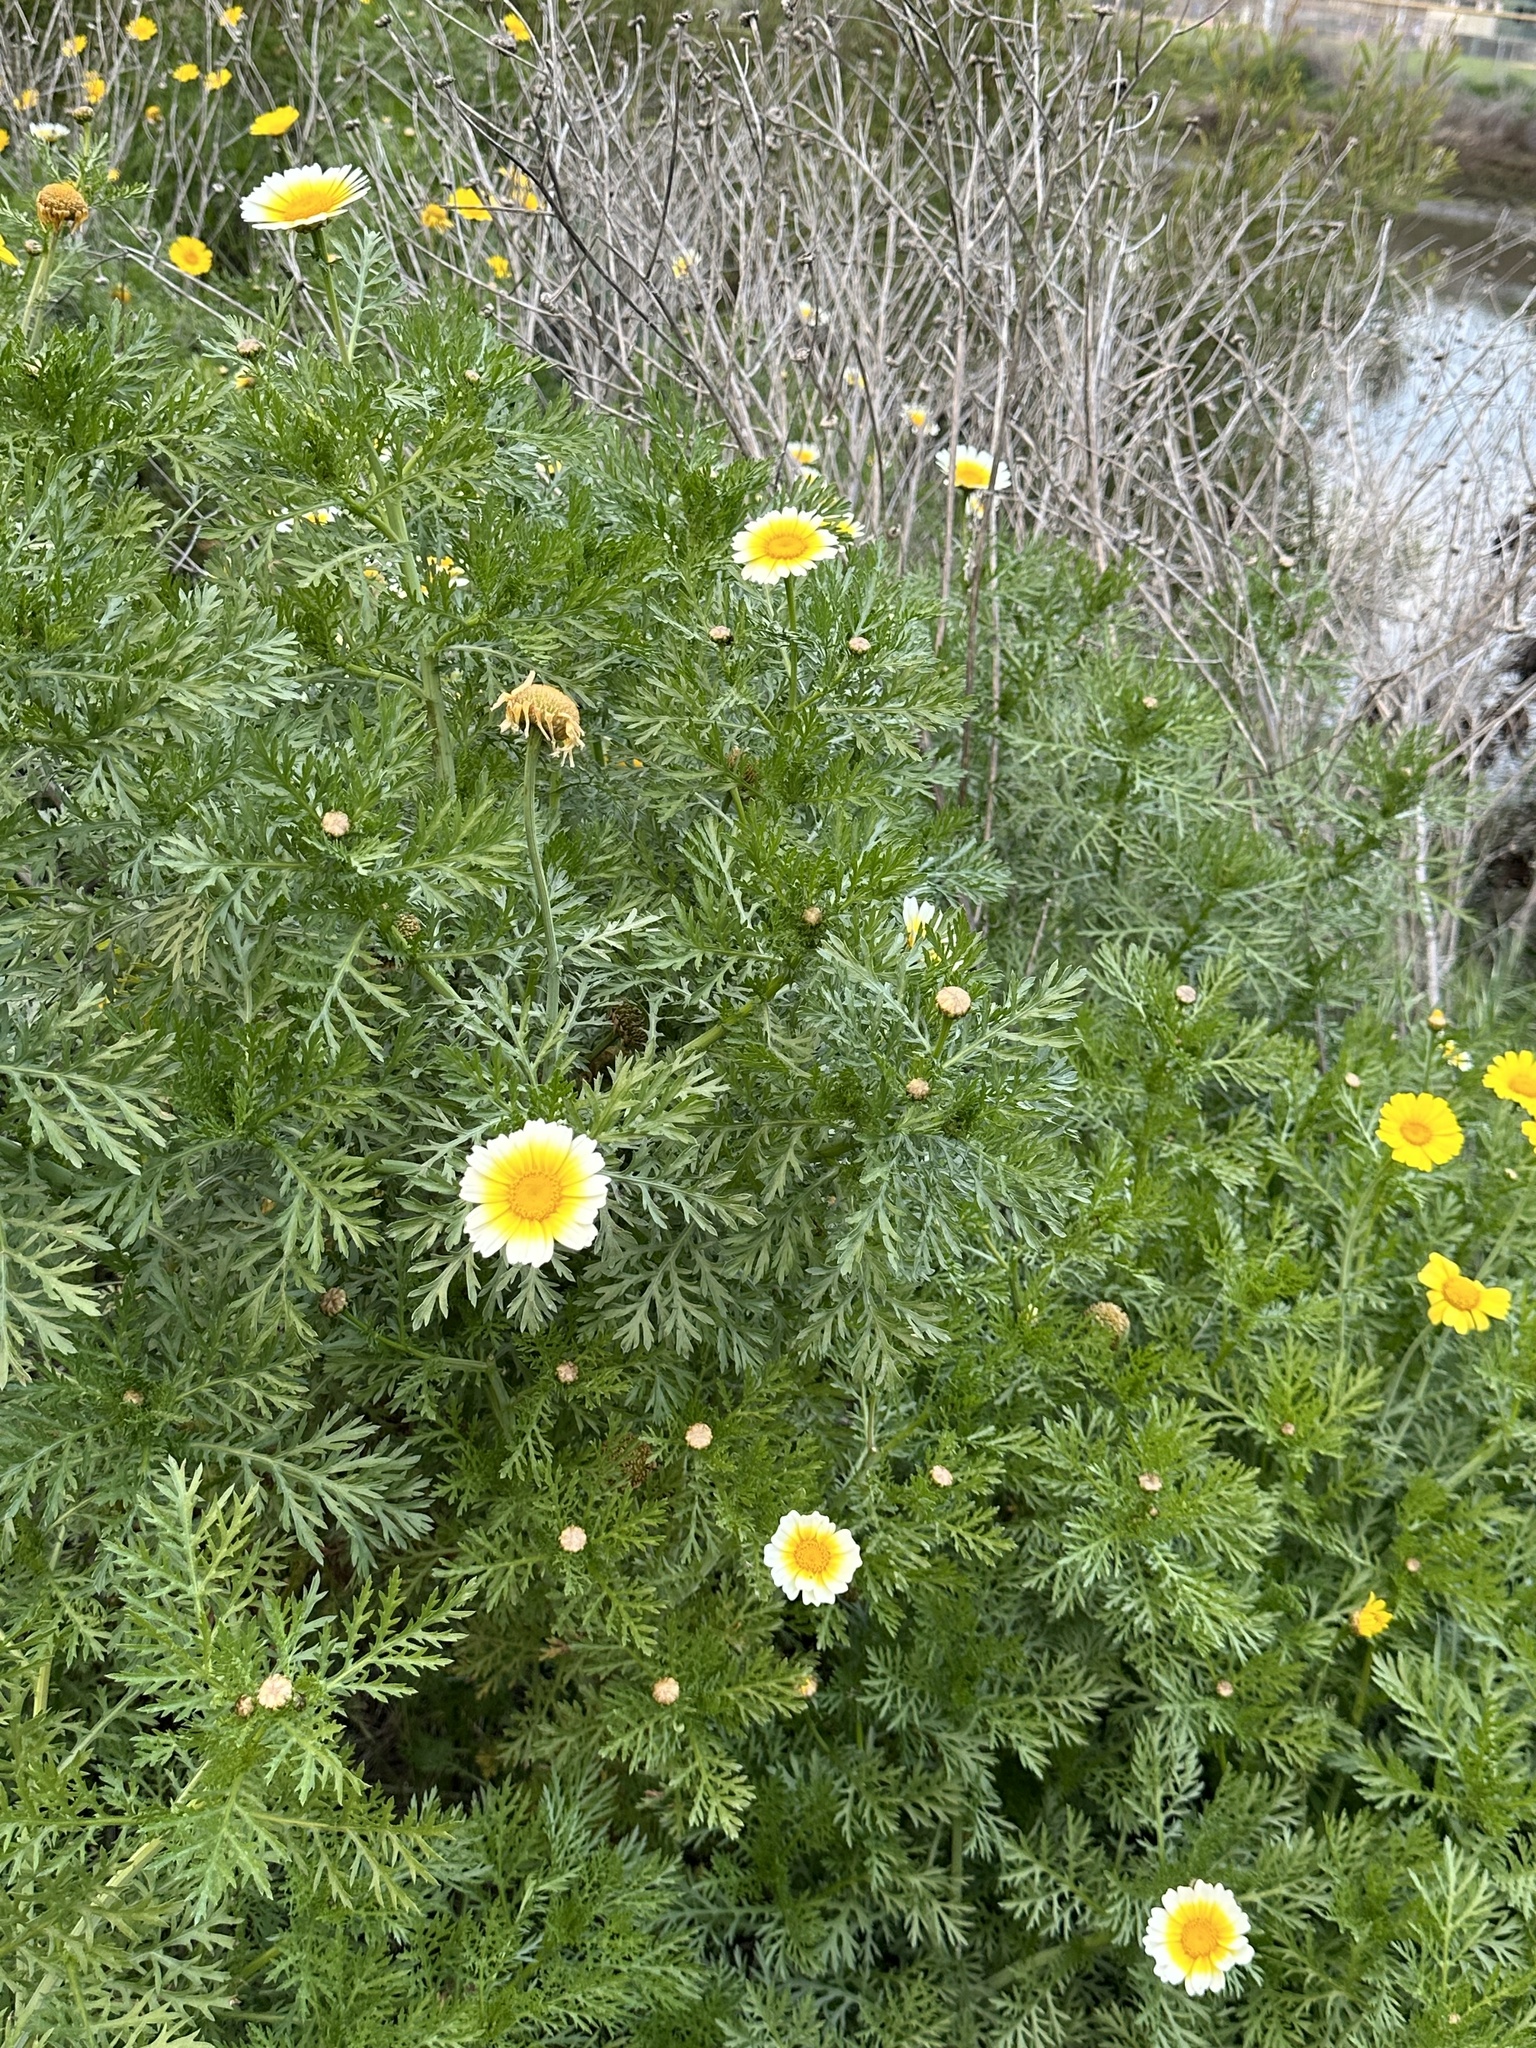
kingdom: Plantae
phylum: Tracheophyta
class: Magnoliopsida
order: Asterales
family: Asteraceae
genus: Glebionis
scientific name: Glebionis coronaria
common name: Crowndaisy
